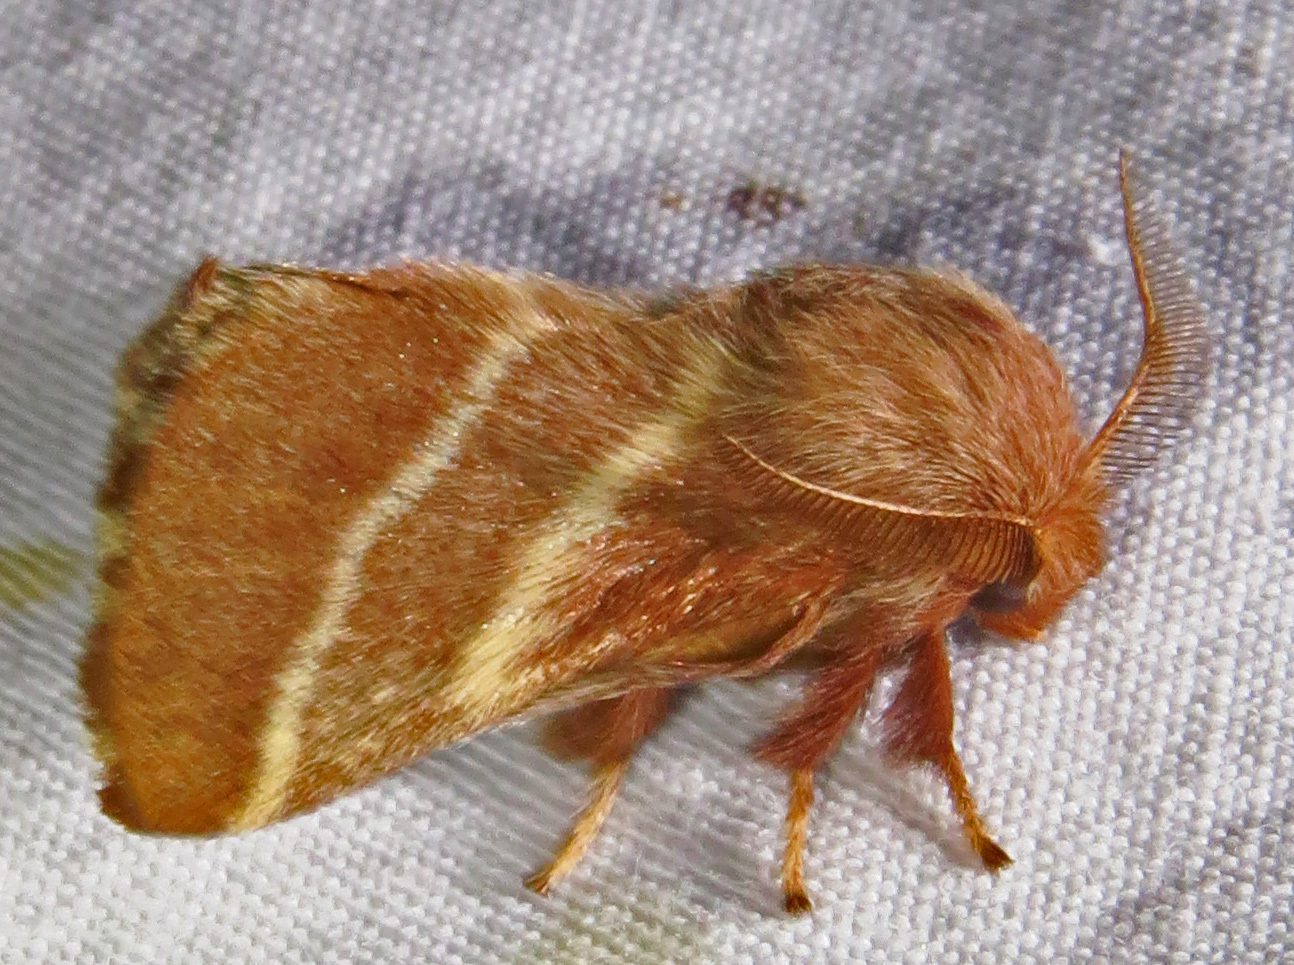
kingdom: Animalia
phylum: Arthropoda
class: Insecta
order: Lepidoptera
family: Lasiocampidae
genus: Malacosoma
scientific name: Malacosoma americana
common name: Eastern tent caterpillar moth
